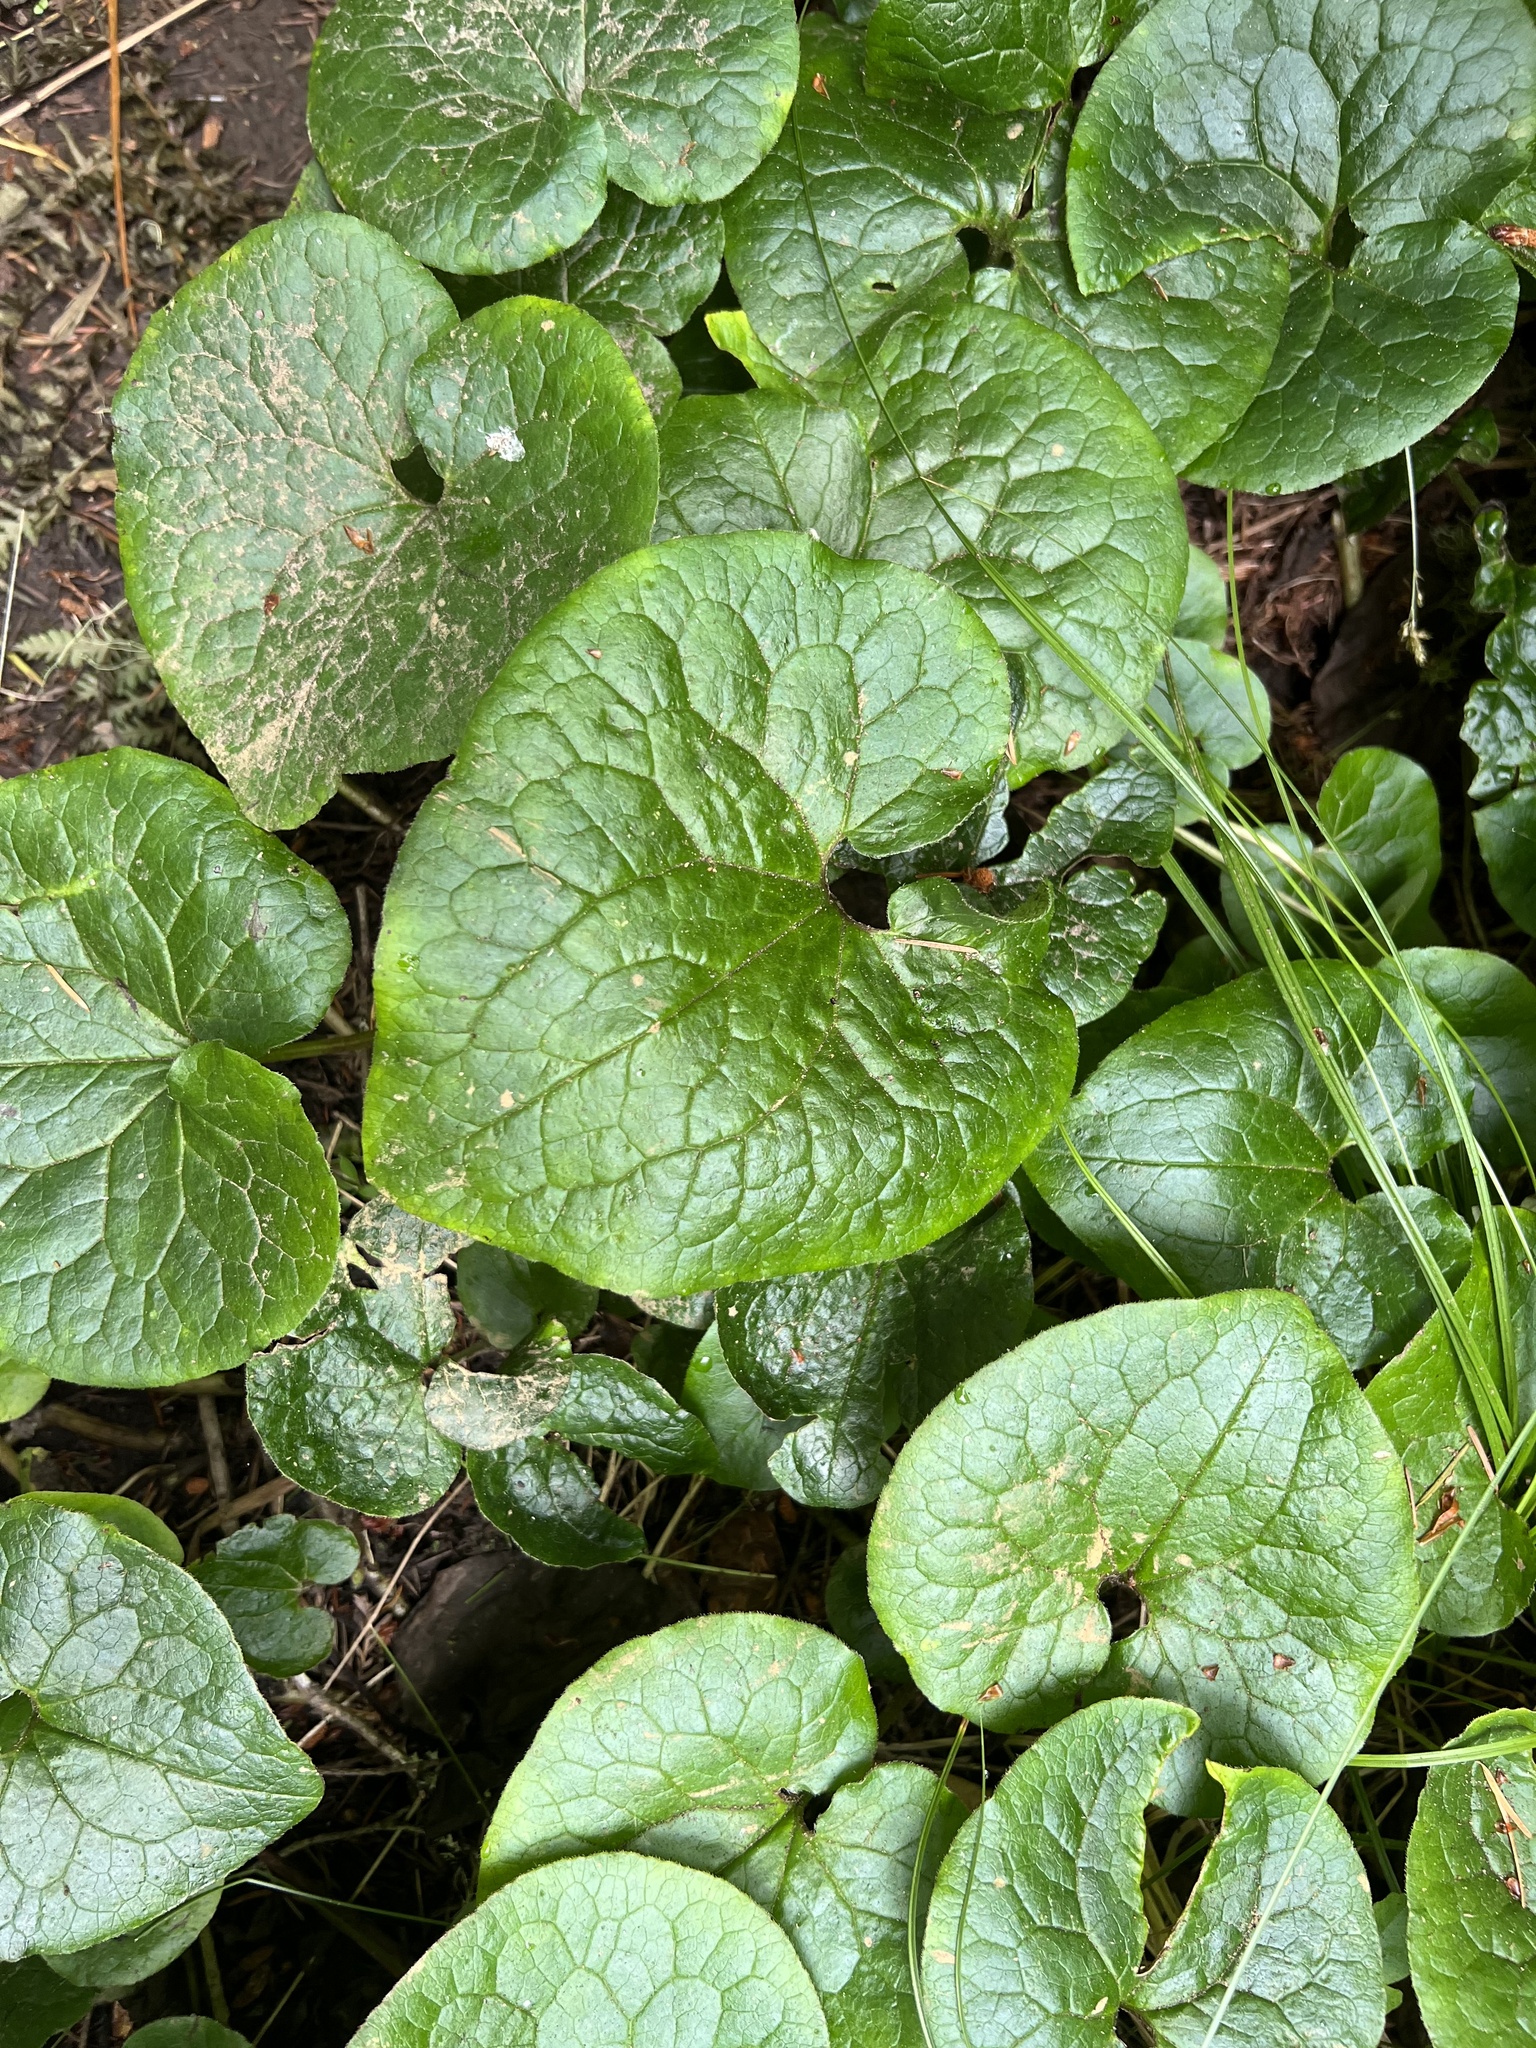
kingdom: Plantae
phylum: Tracheophyta
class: Magnoliopsida
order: Piperales
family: Aristolochiaceae
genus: Asarum
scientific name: Asarum caudatum
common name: Wild ginger
